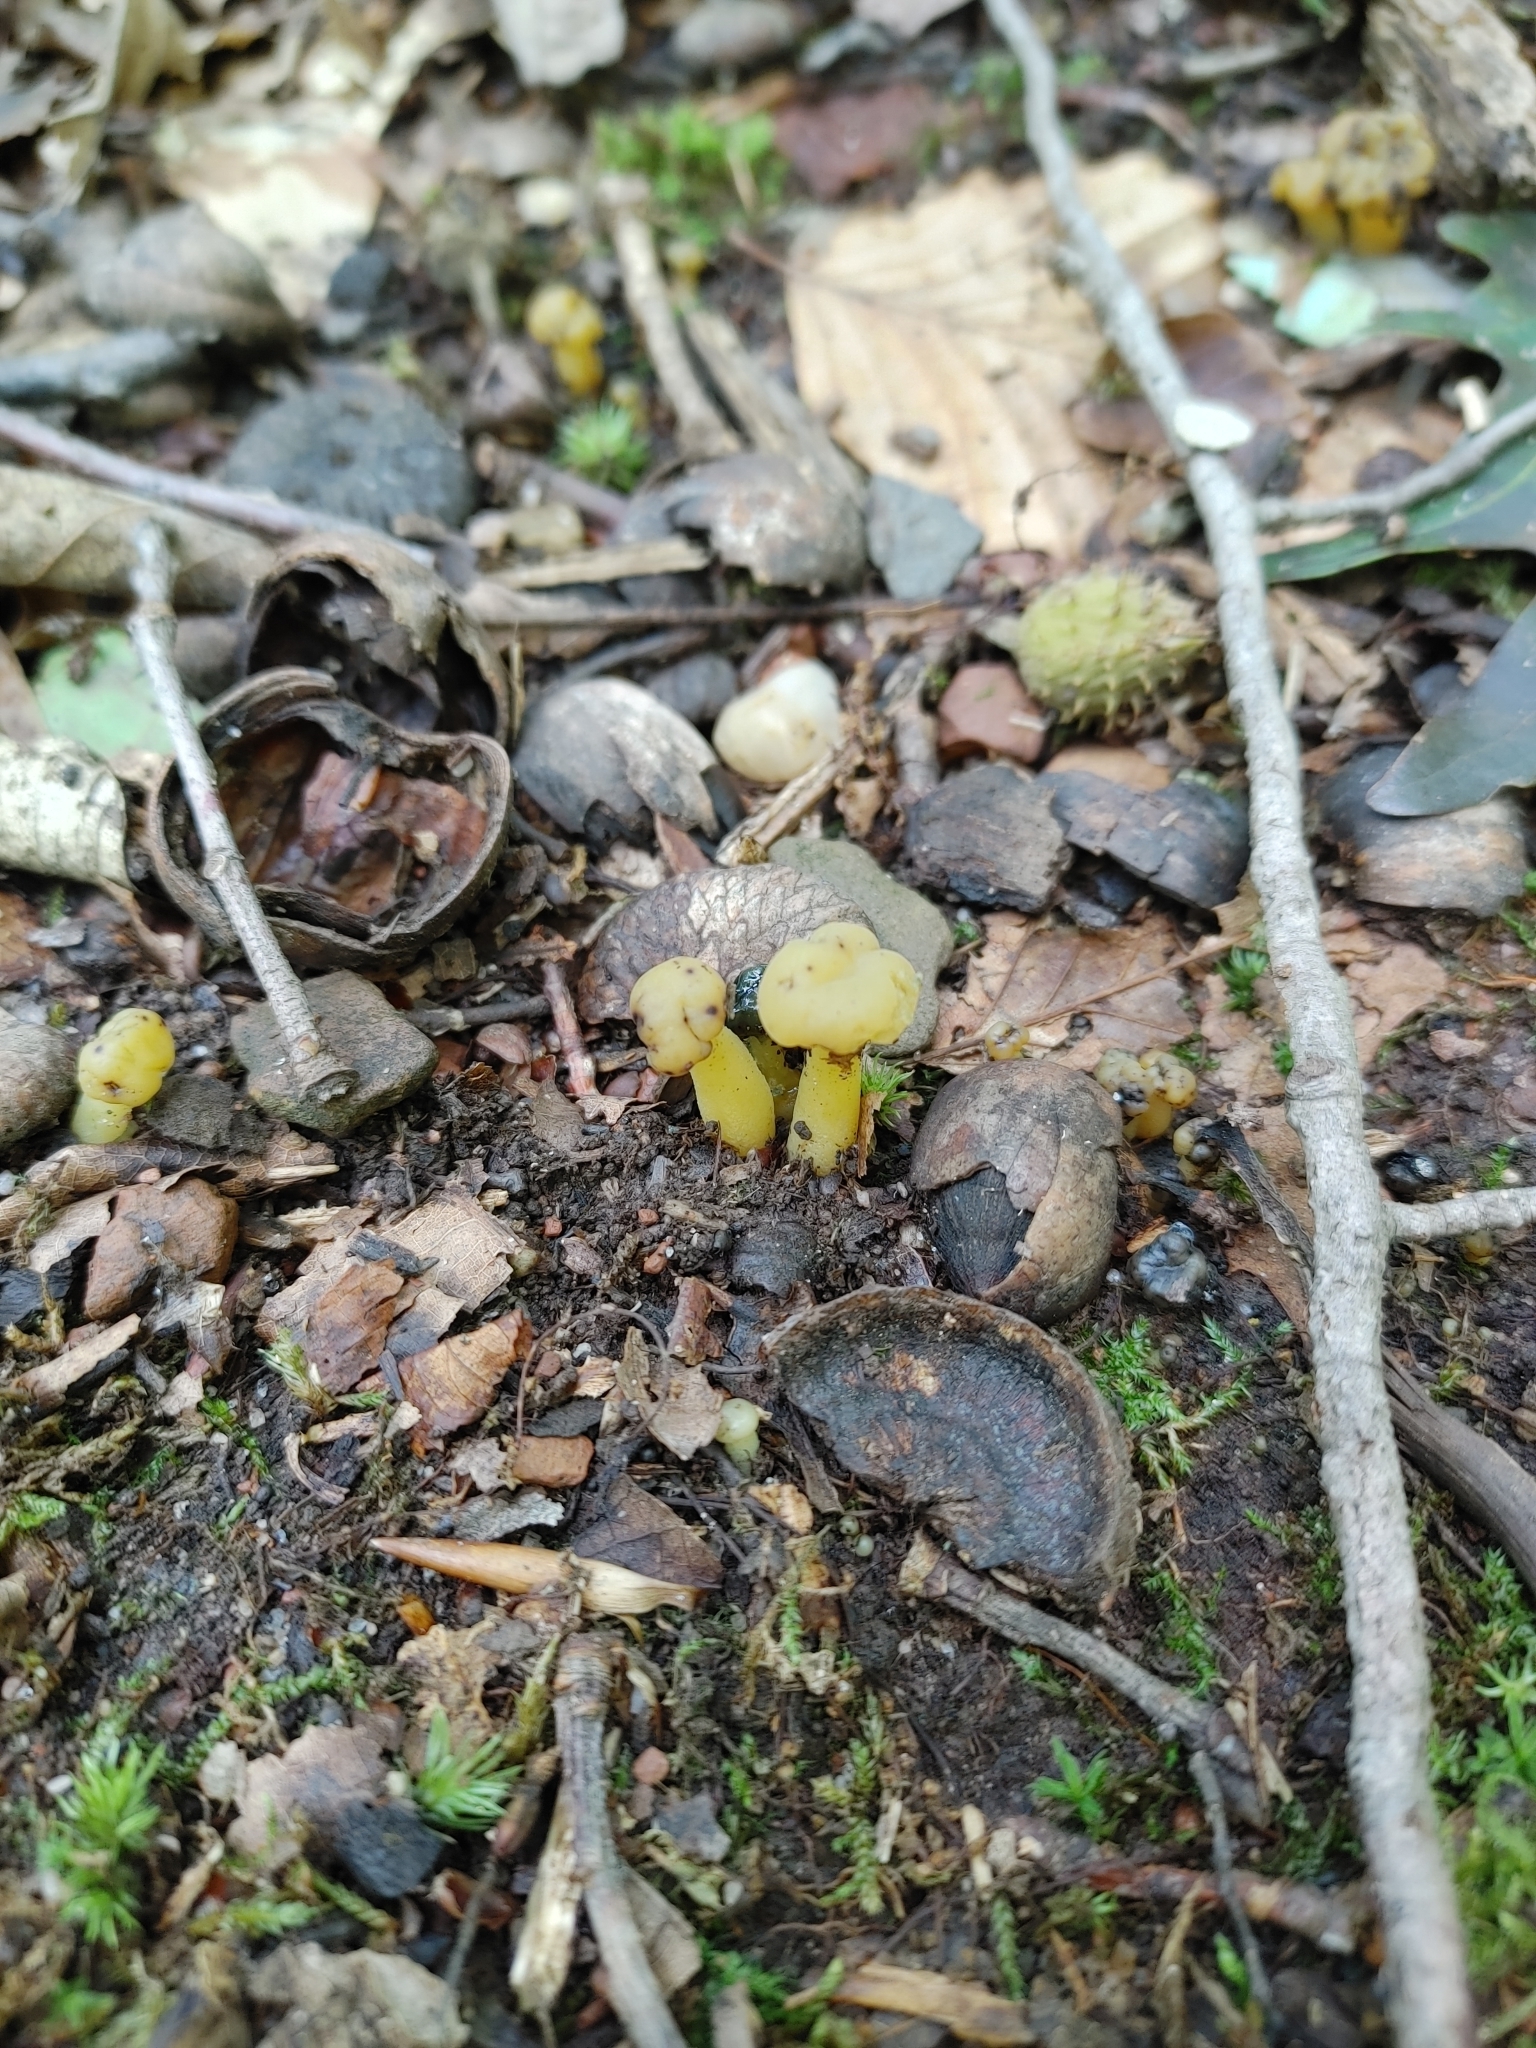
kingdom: Fungi
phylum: Ascomycota
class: Leotiomycetes
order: Leotiales
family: Leotiaceae
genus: Leotia
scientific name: Leotia lubrica
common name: Jellybaby
